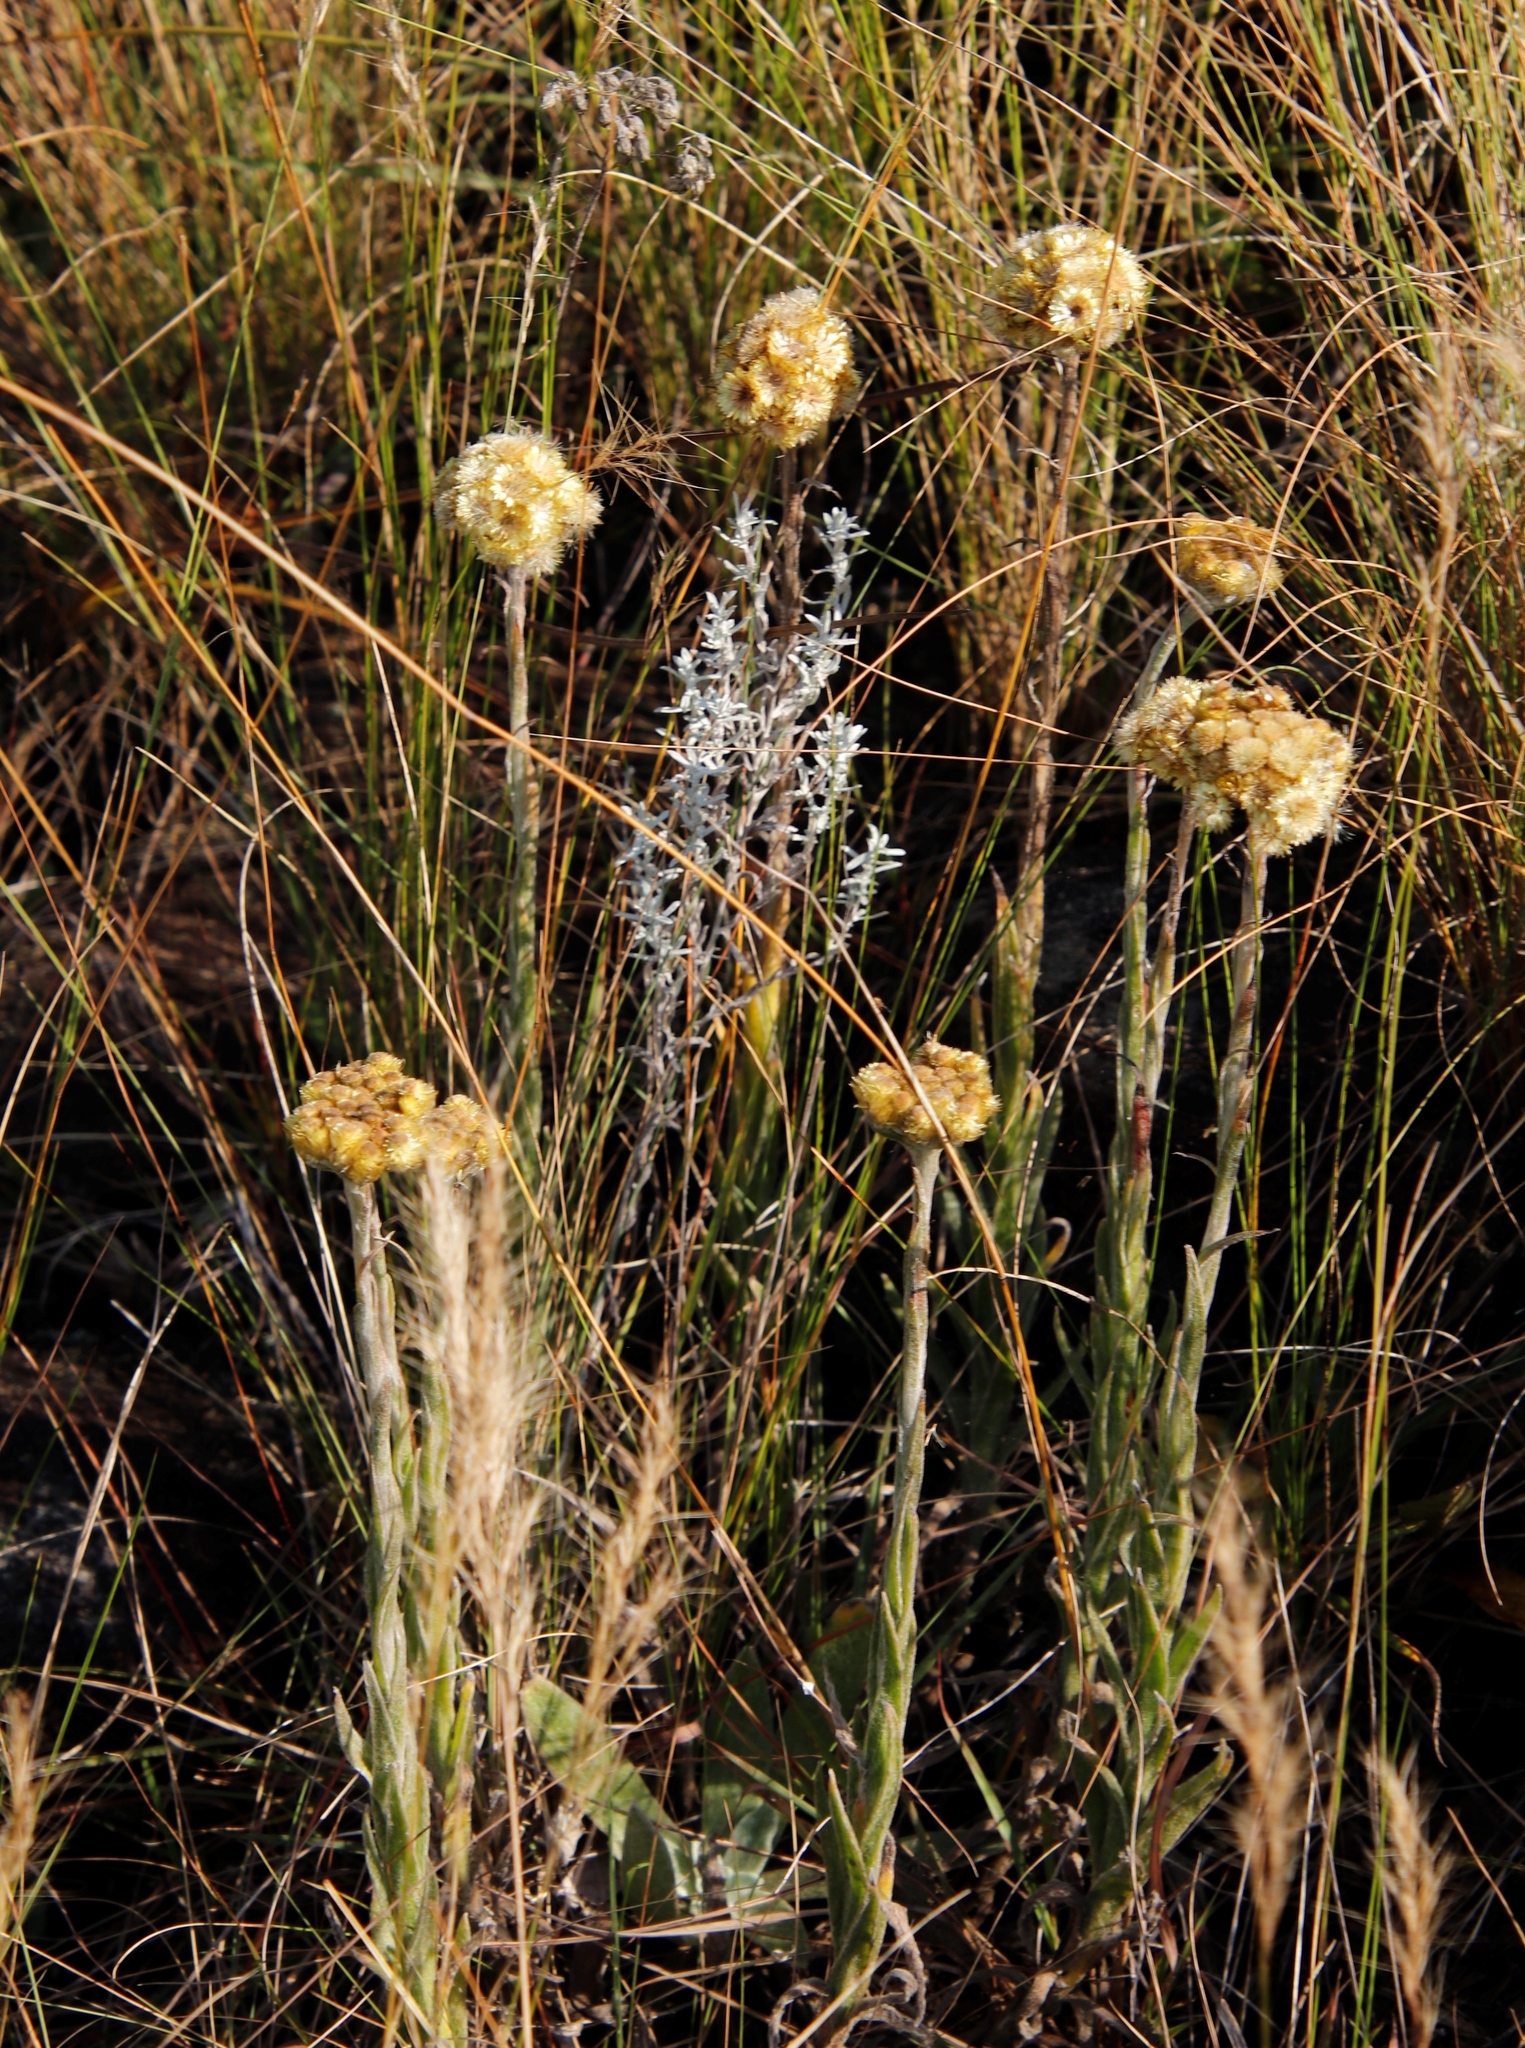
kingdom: Plantae
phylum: Tracheophyta
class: Magnoliopsida
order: Asterales
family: Asteraceae
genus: Helichrysum
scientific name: Helichrysum auriceps
